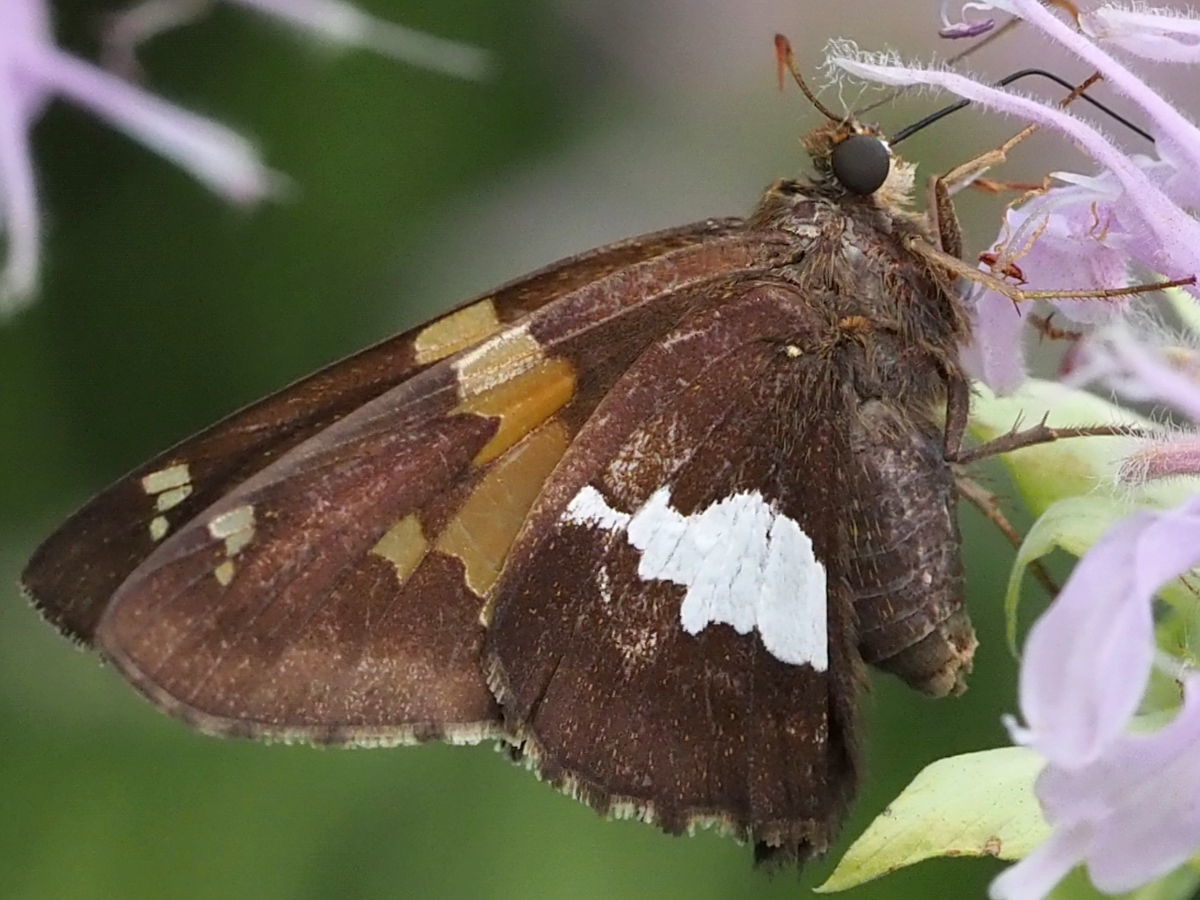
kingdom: Animalia
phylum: Arthropoda
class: Insecta
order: Lepidoptera
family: Hesperiidae
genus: Epargyreus
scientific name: Epargyreus clarus
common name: Silver-spotted skipper
